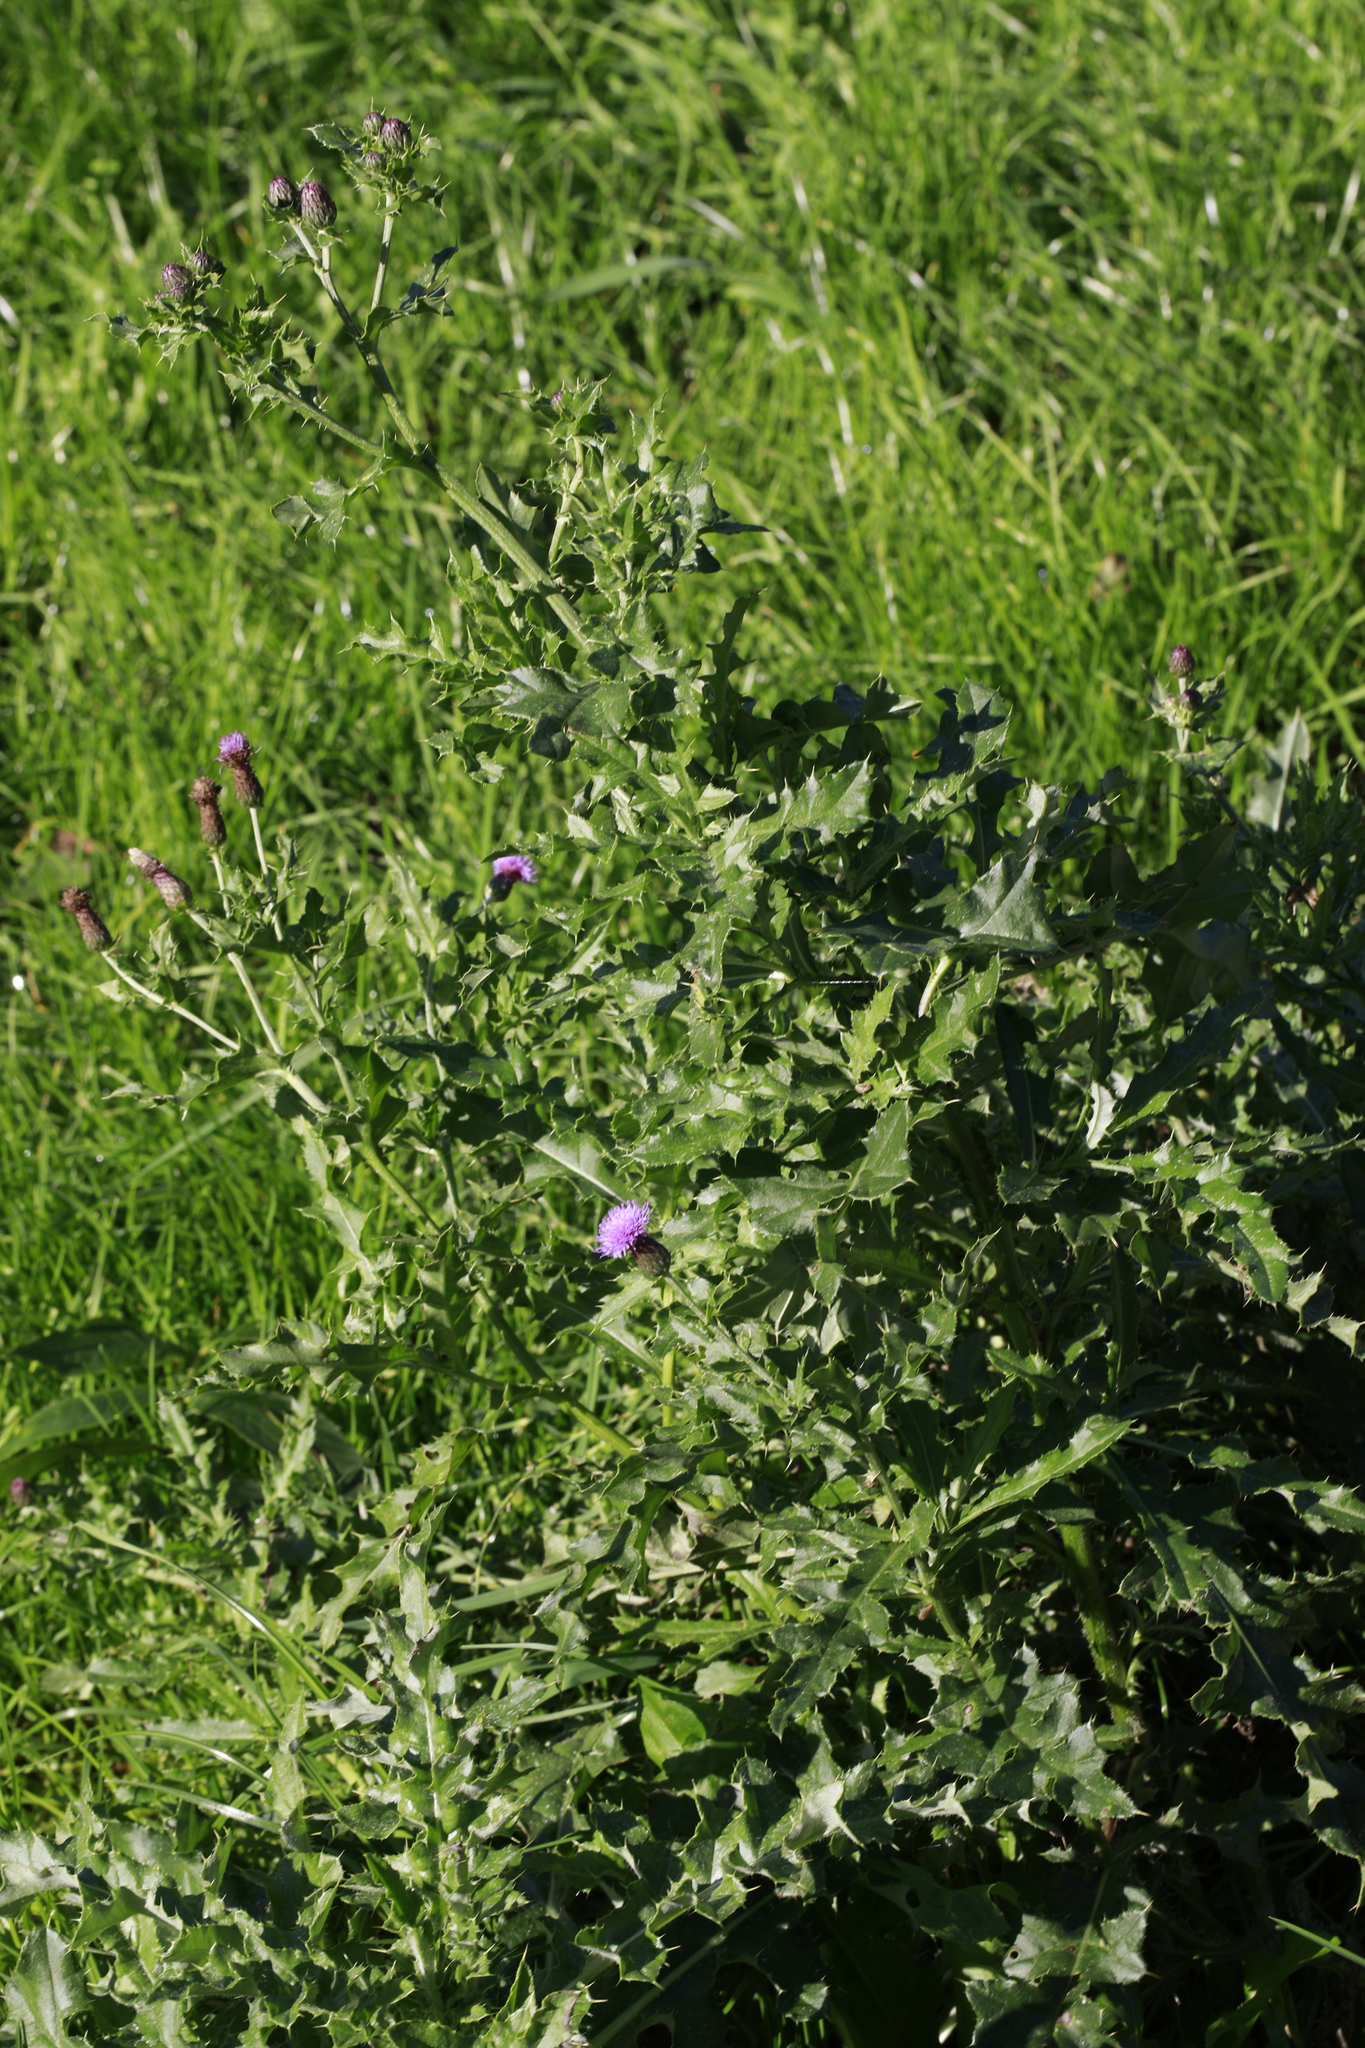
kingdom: Plantae
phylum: Tracheophyta
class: Magnoliopsida
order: Asterales
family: Asteraceae
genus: Cirsium
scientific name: Cirsium arvense
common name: Creeping thistle
